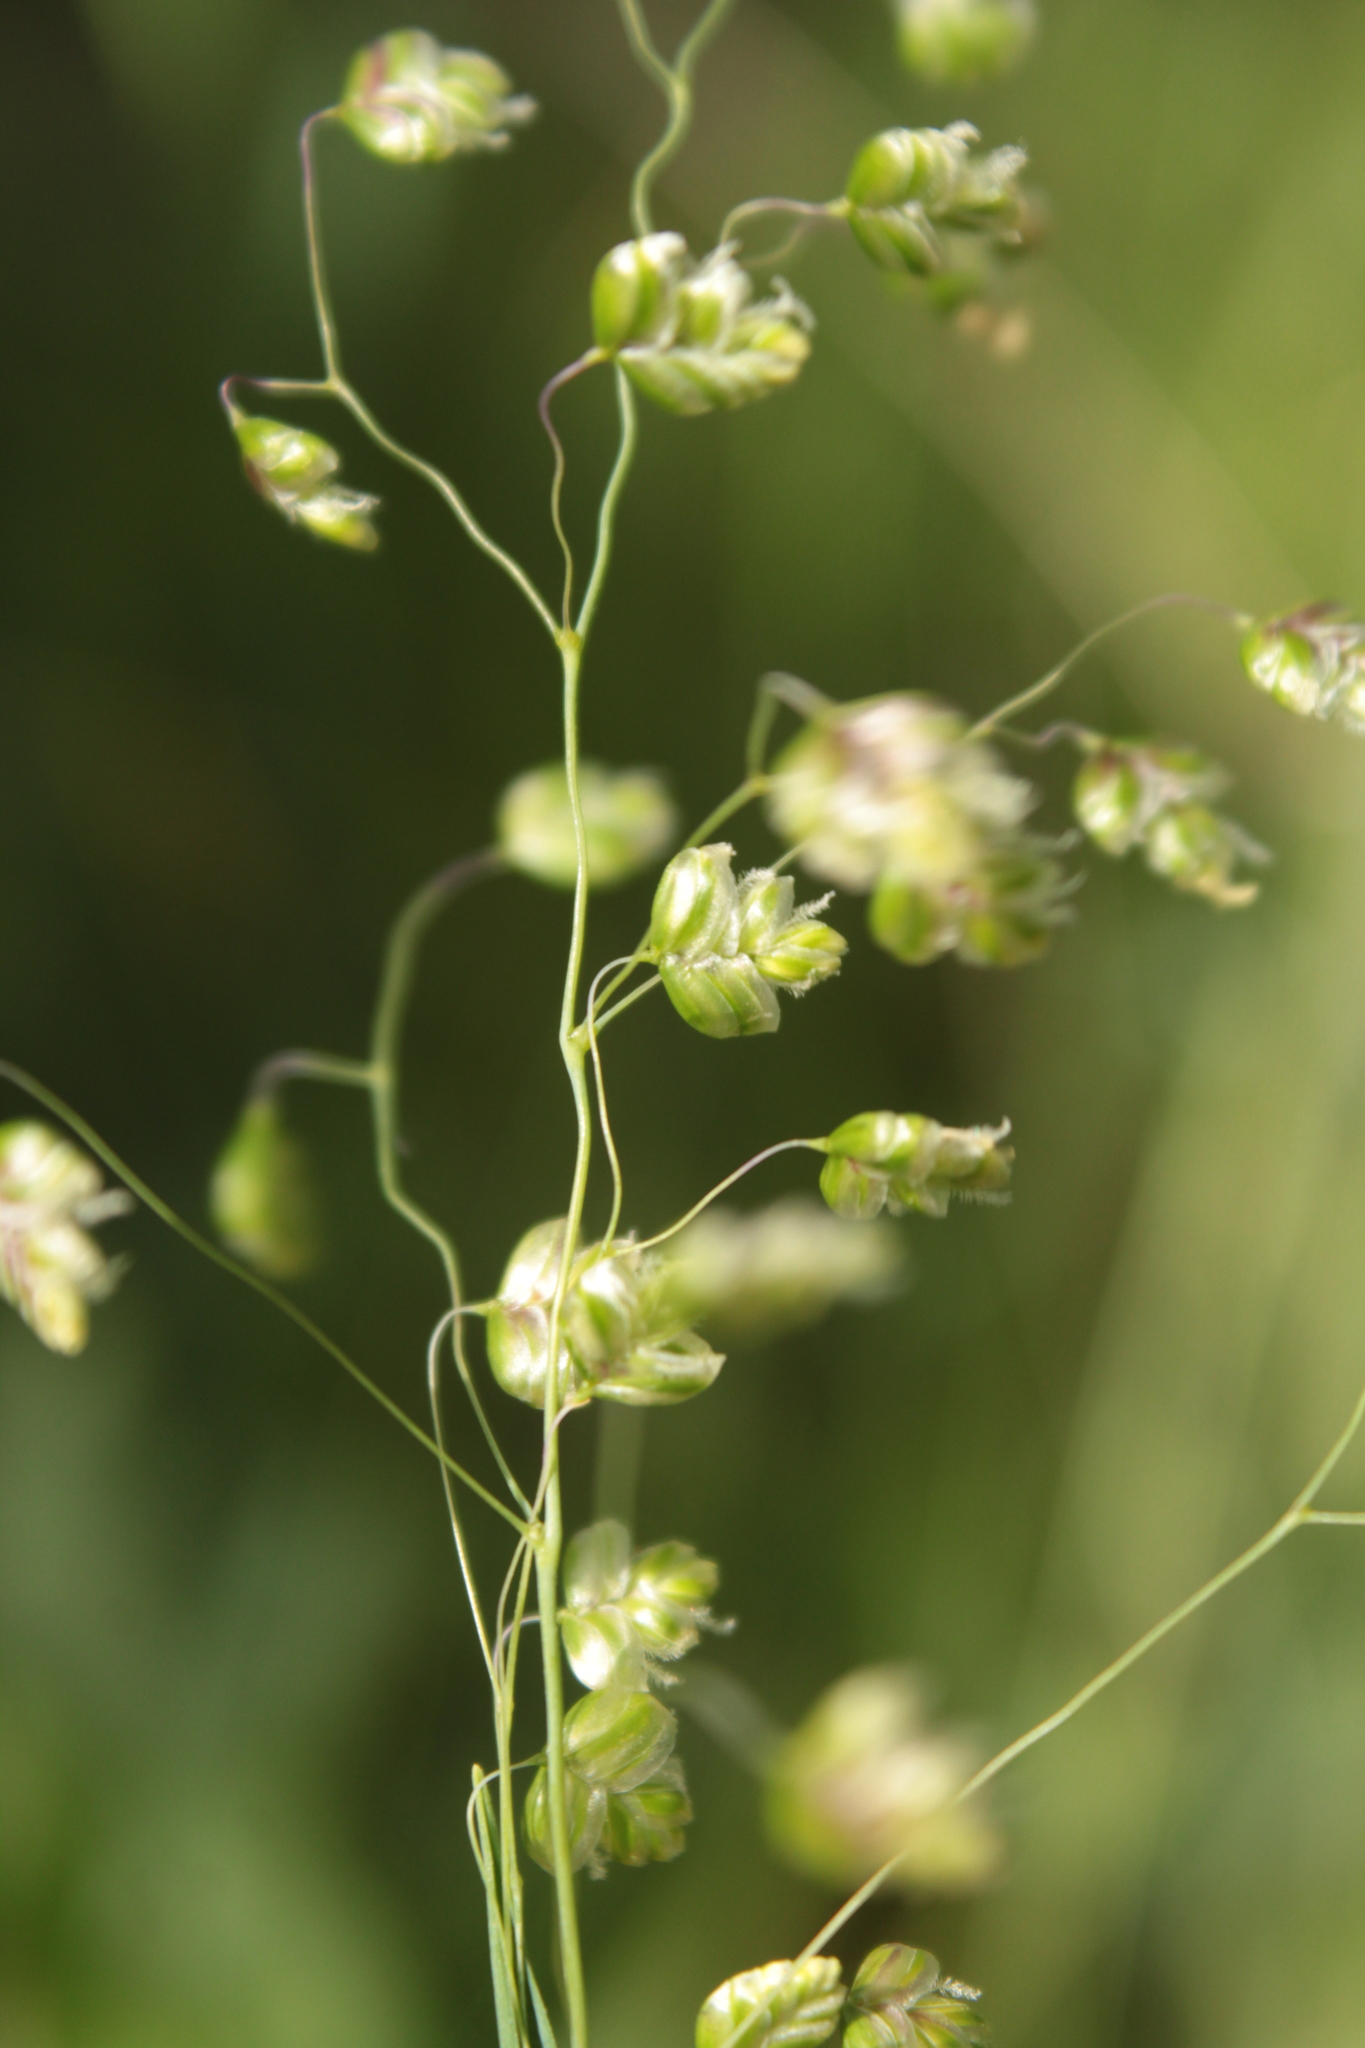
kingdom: Plantae
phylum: Tracheophyta
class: Liliopsida
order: Poales
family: Poaceae
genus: Briza
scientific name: Briza media
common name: Quaking grass
